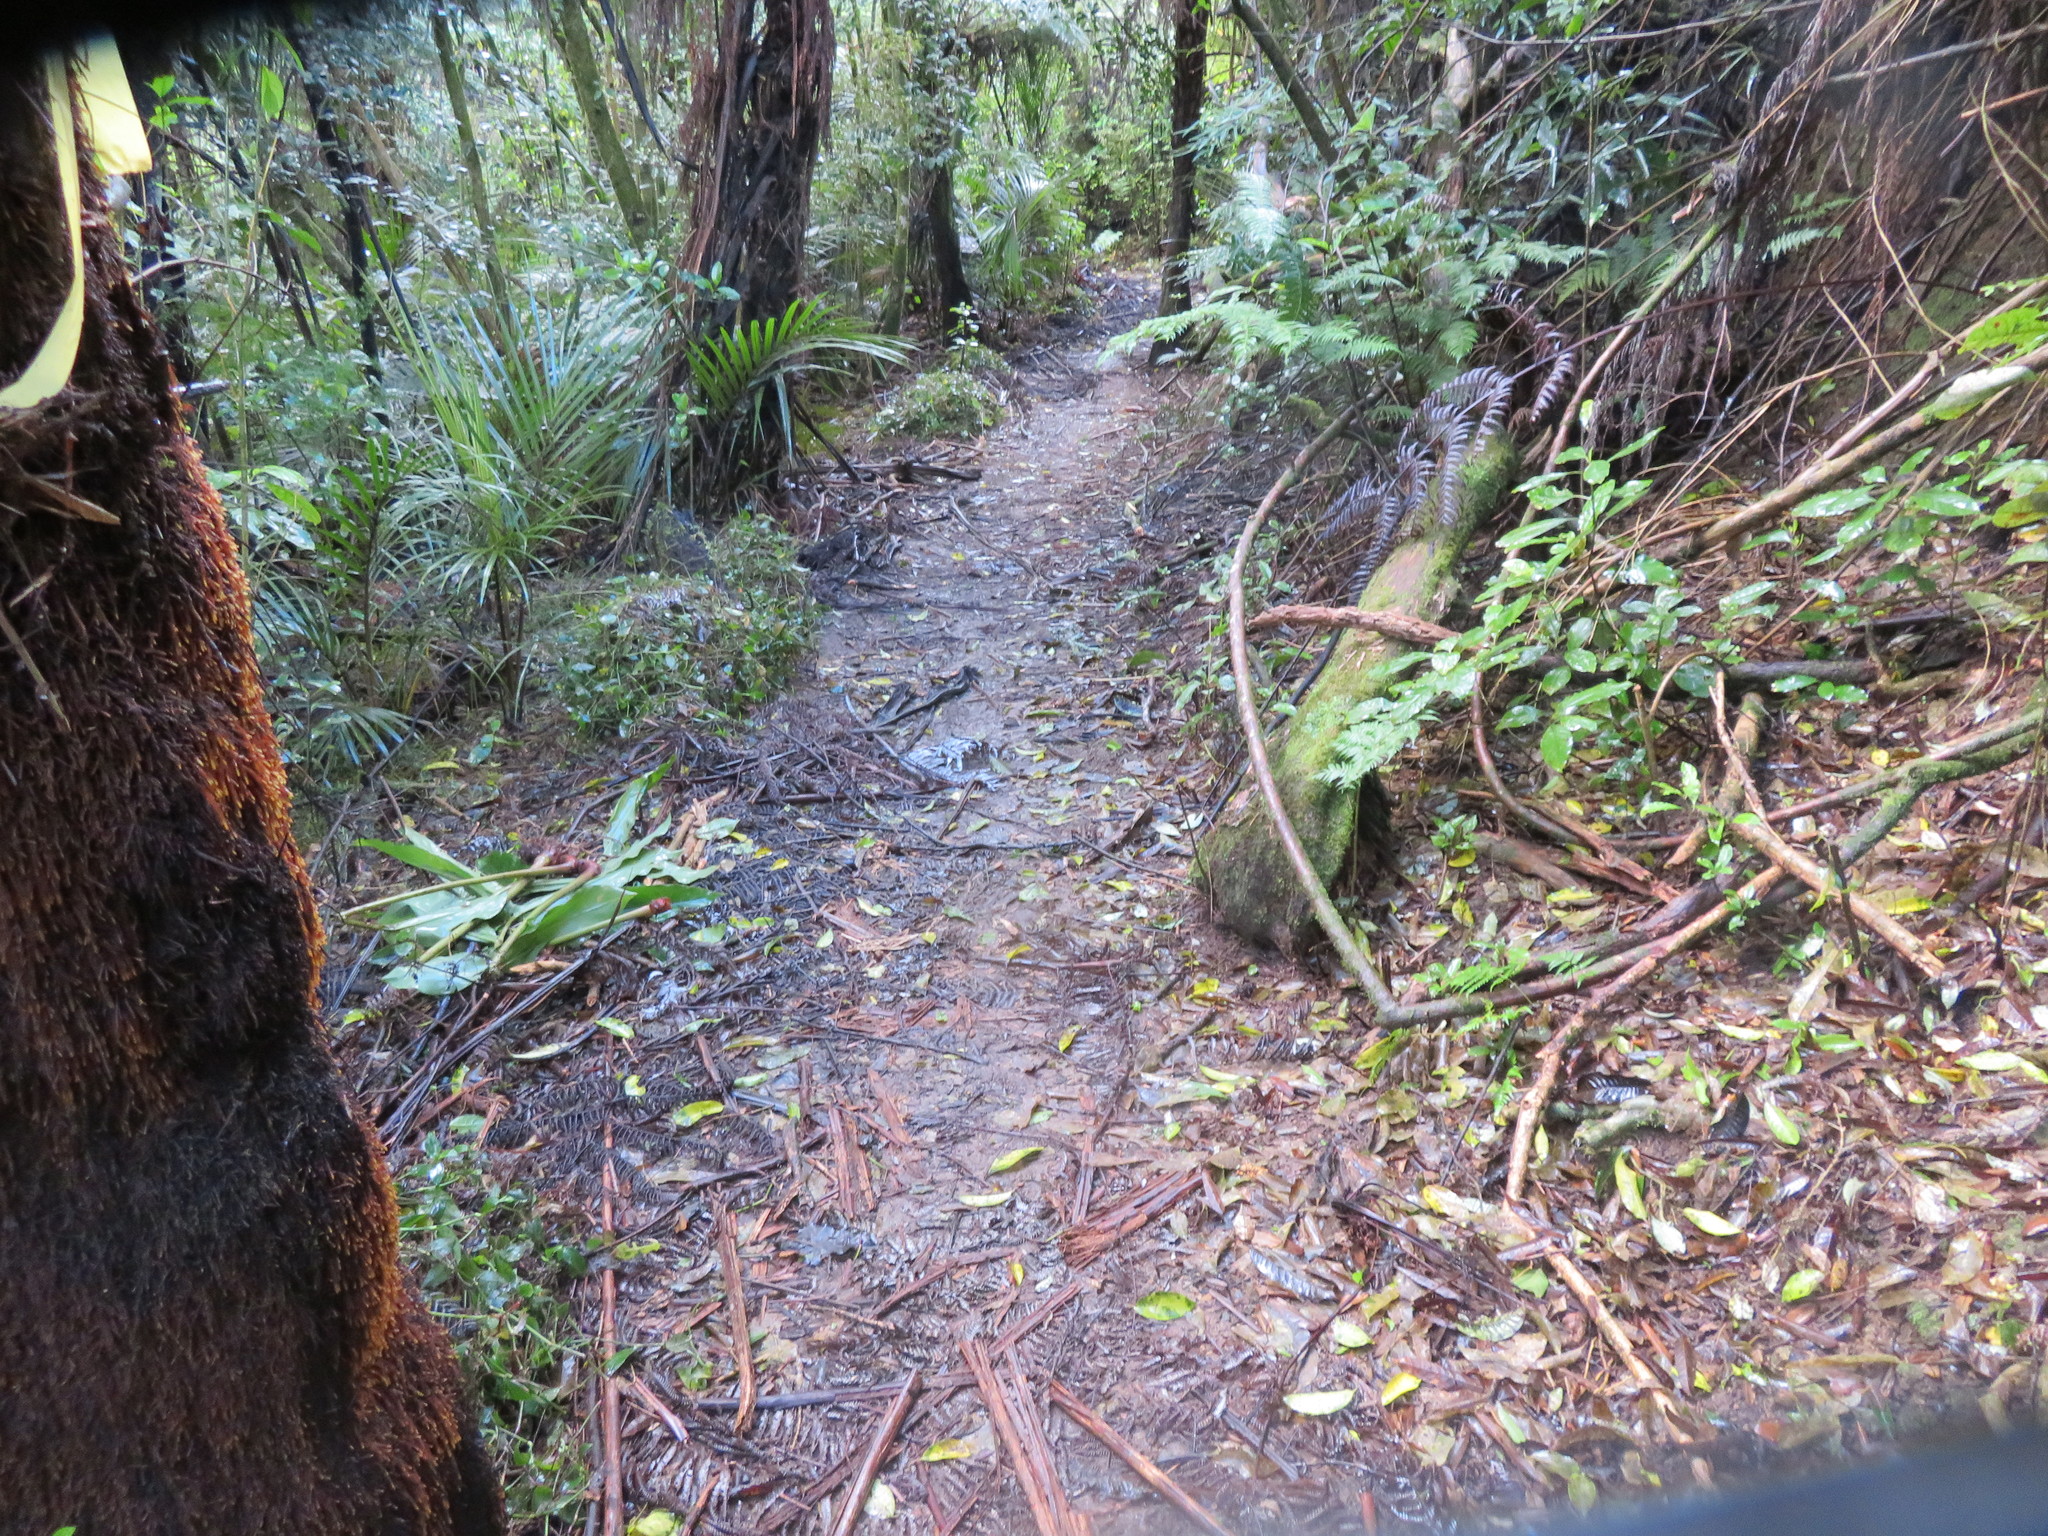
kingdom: Plantae
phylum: Tracheophyta
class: Liliopsida
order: Commelinales
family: Commelinaceae
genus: Tradescantia
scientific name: Tradescantia fluminensis
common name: Wandering-jew
